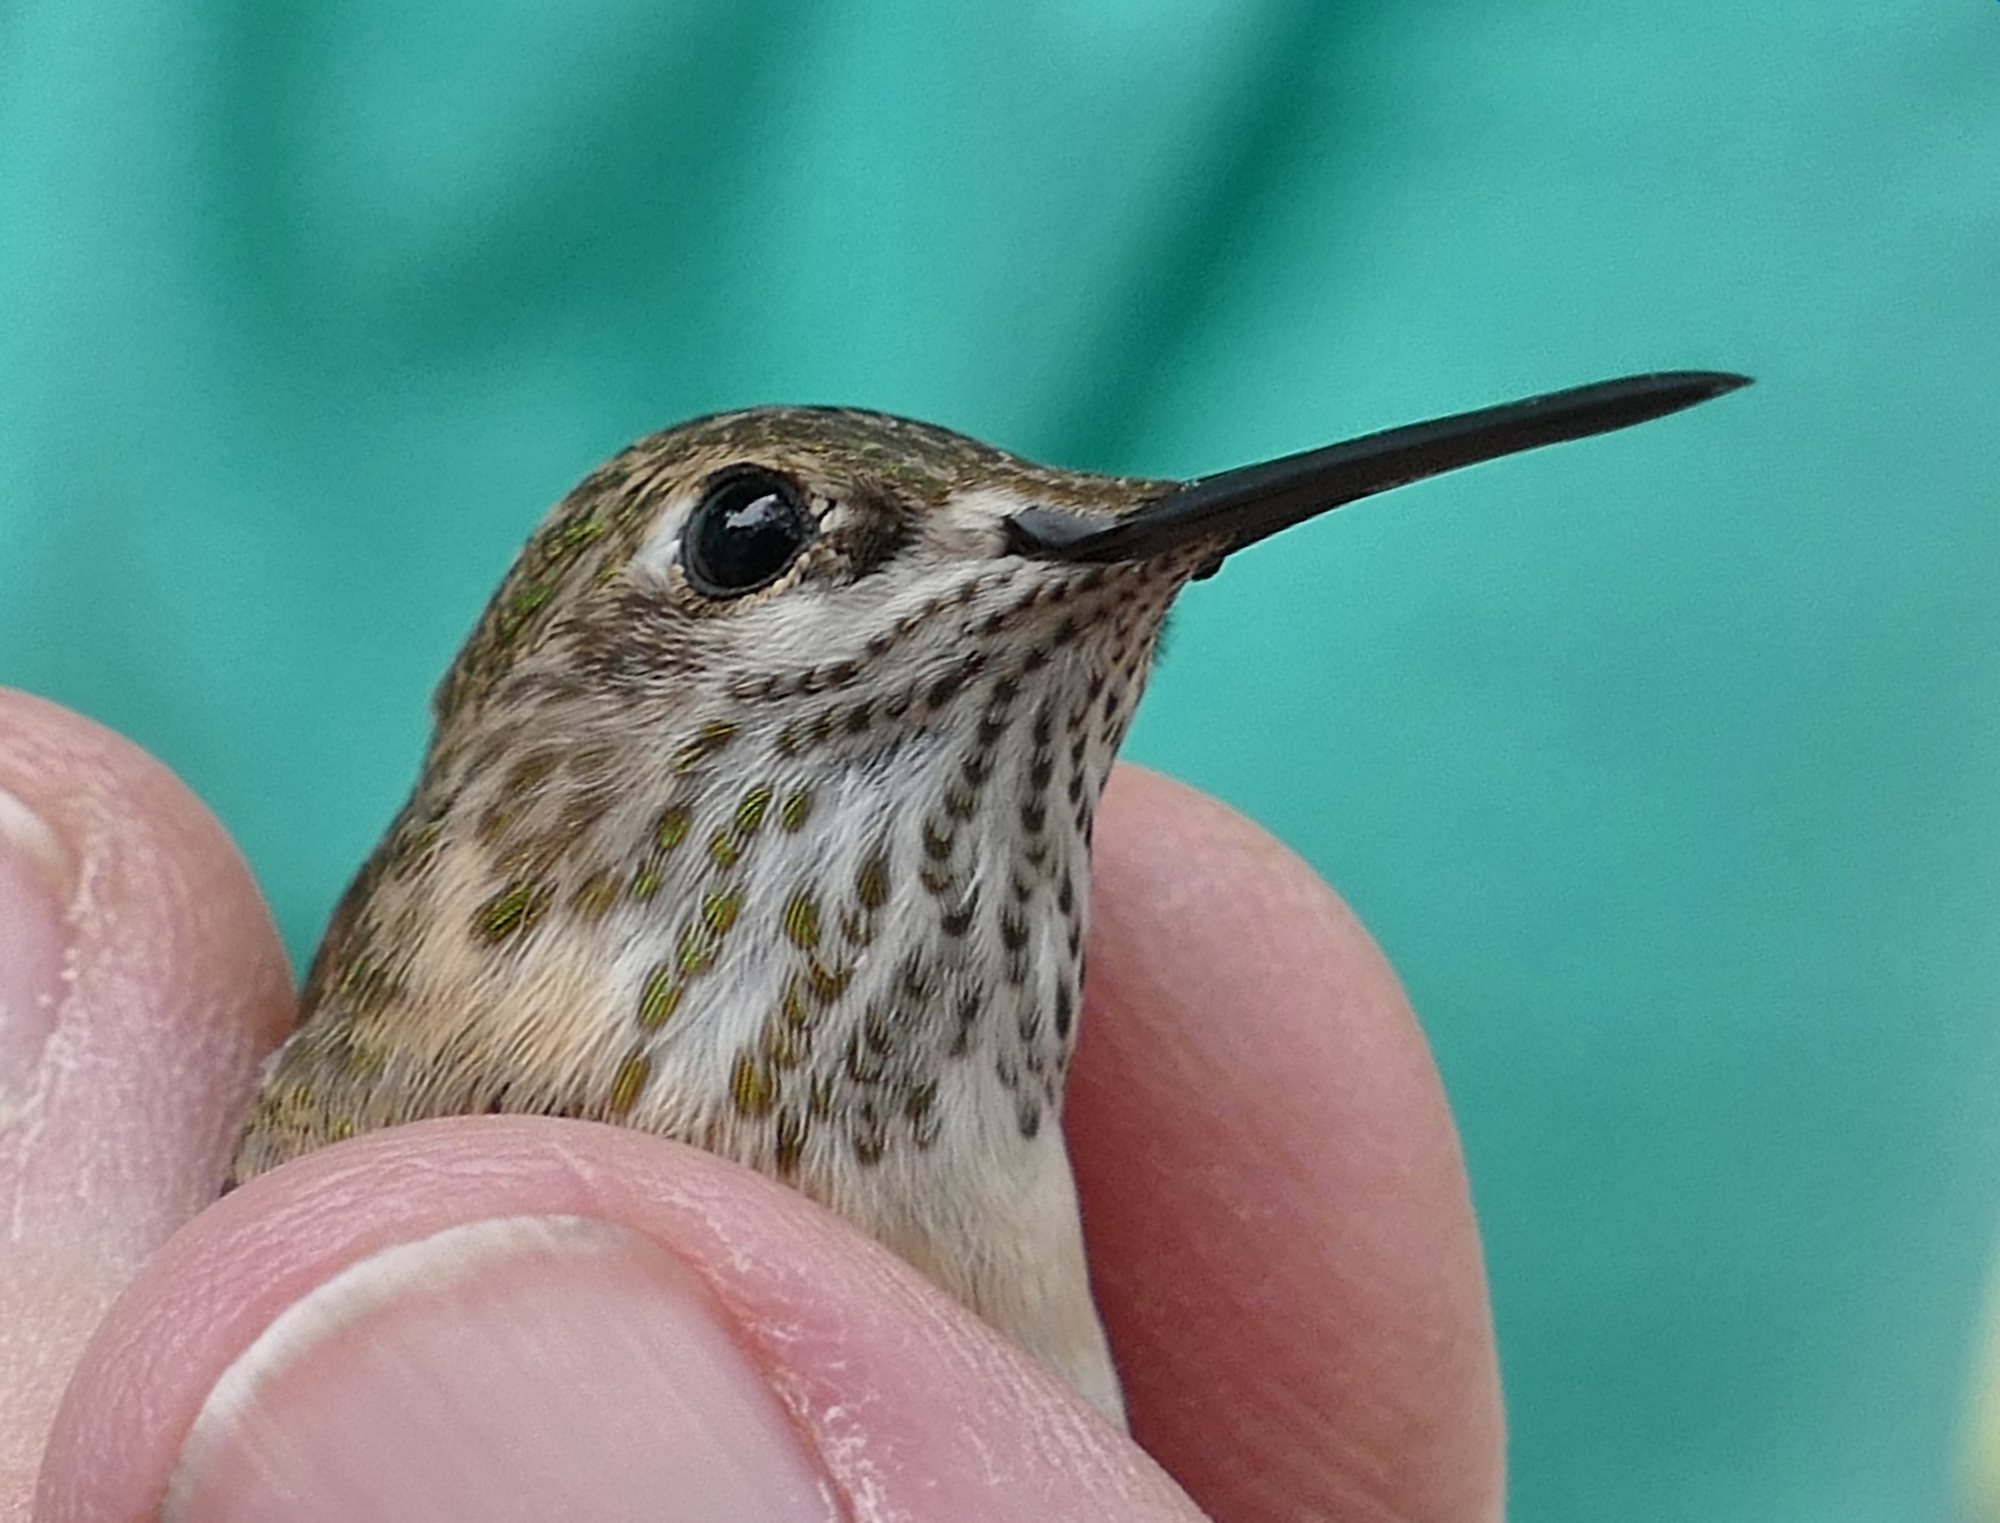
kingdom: Animalia
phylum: Chordata
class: Aves
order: Apodiformes
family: Trochilidae
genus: Selasphorus
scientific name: Selasphorus calliope
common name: Calliope hummingbird
